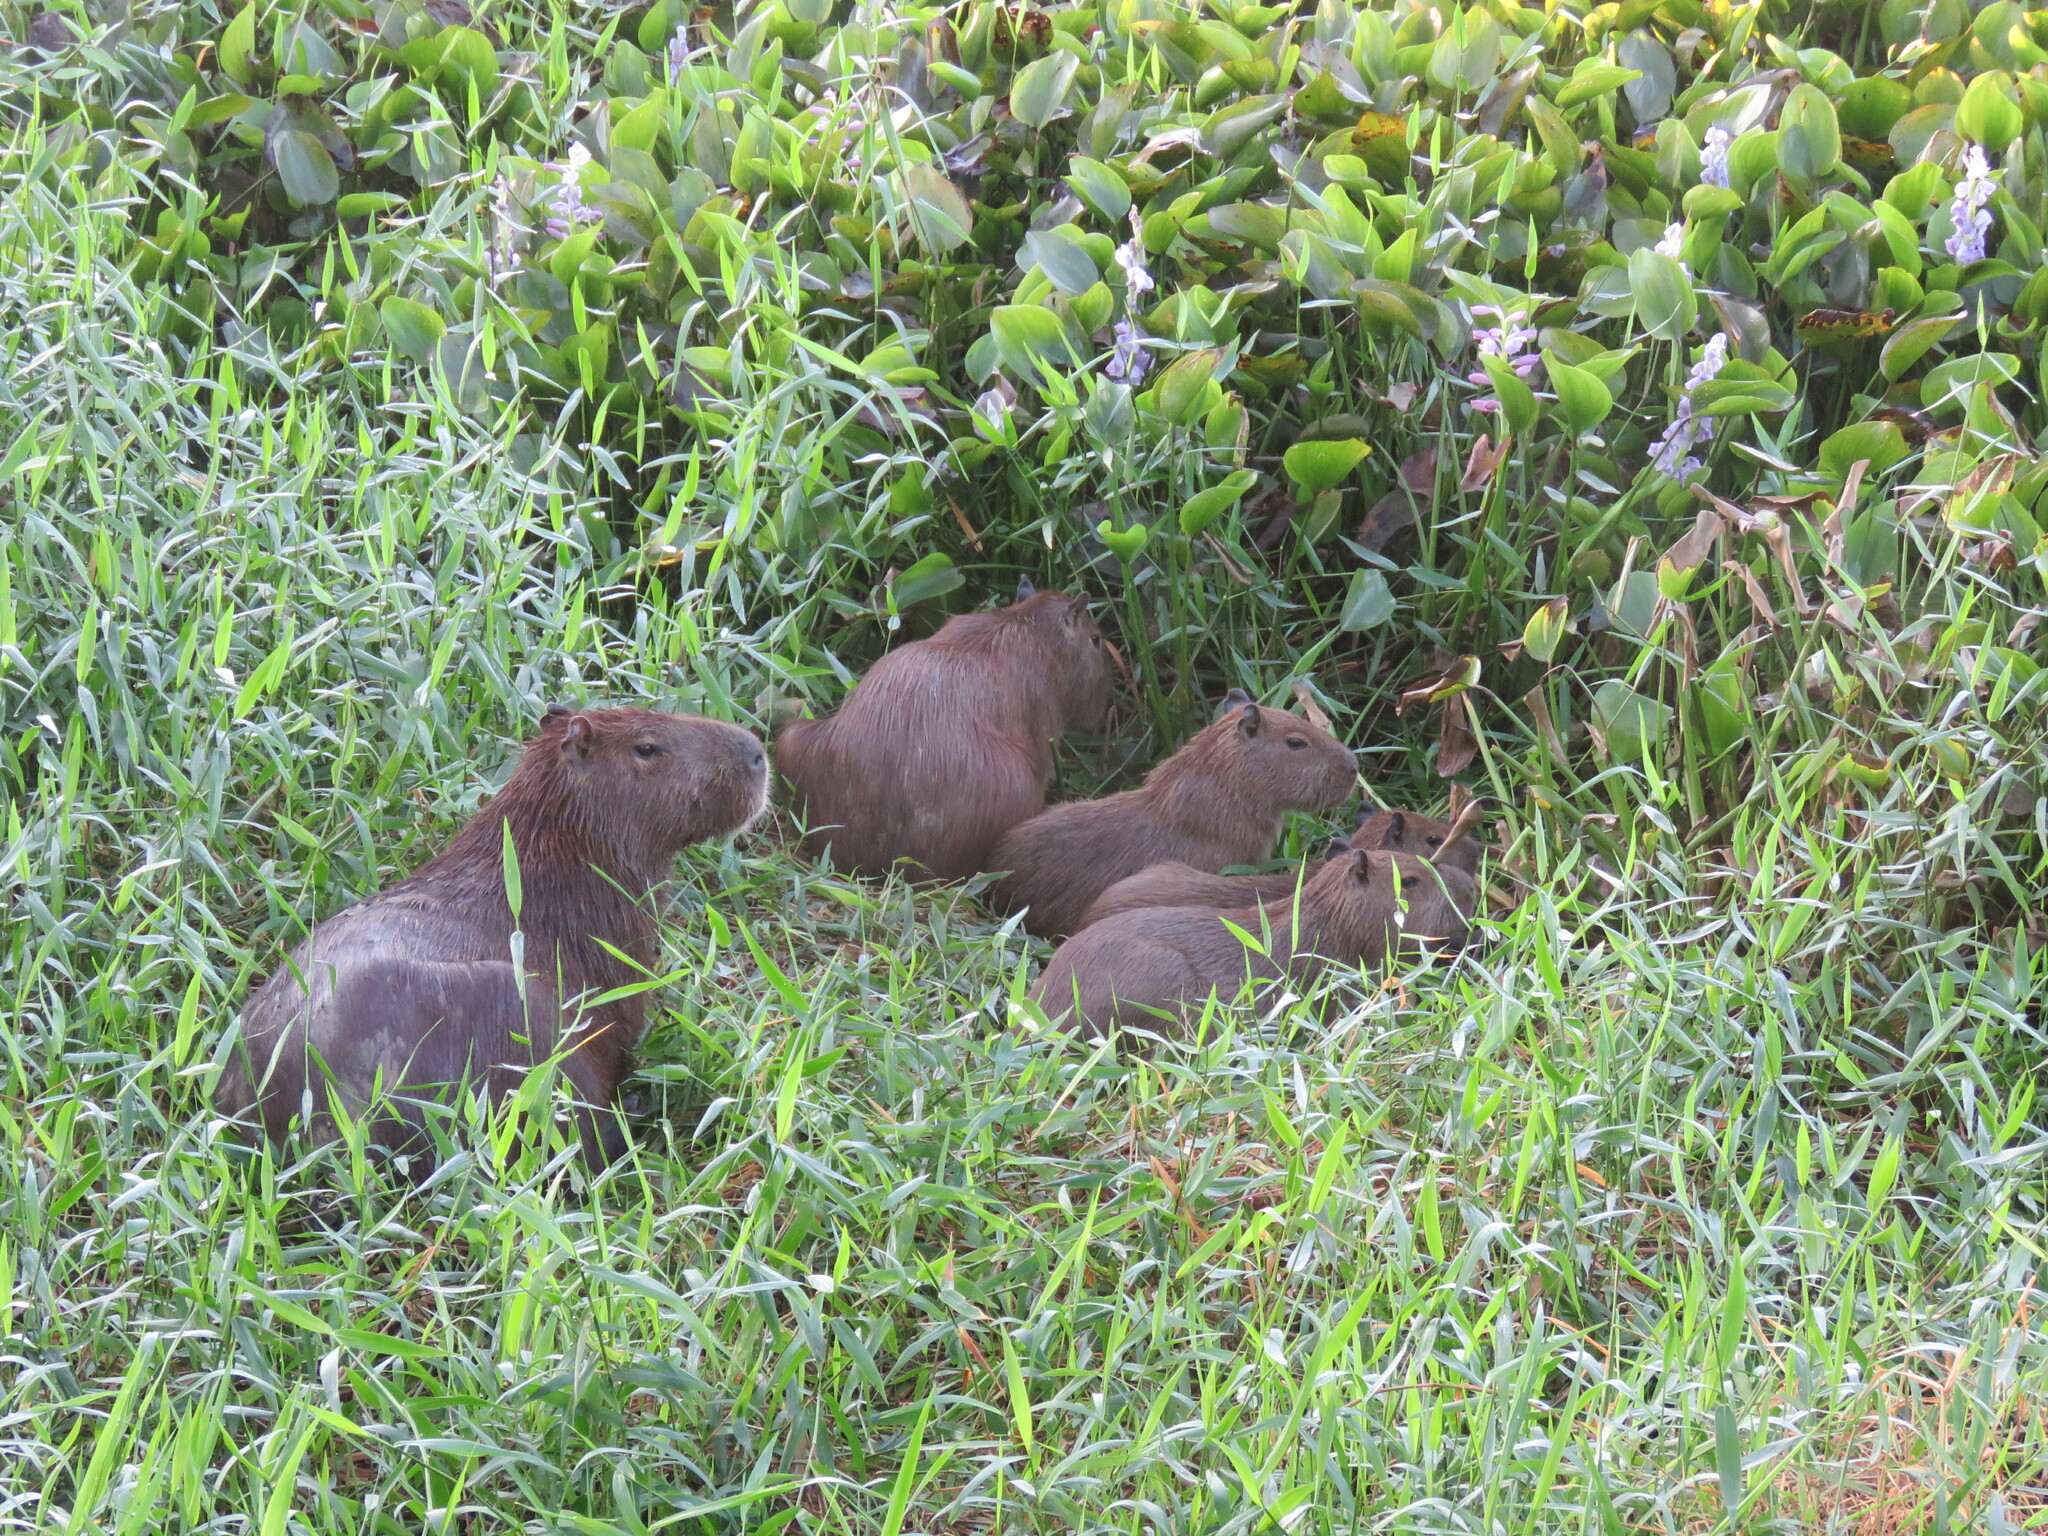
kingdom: Animalia
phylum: Chordata
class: Mammalia
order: Rodentia
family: Caviidae
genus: Hydrochoerus
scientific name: Hydrochoerus hydrochaeris
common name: Capybara
